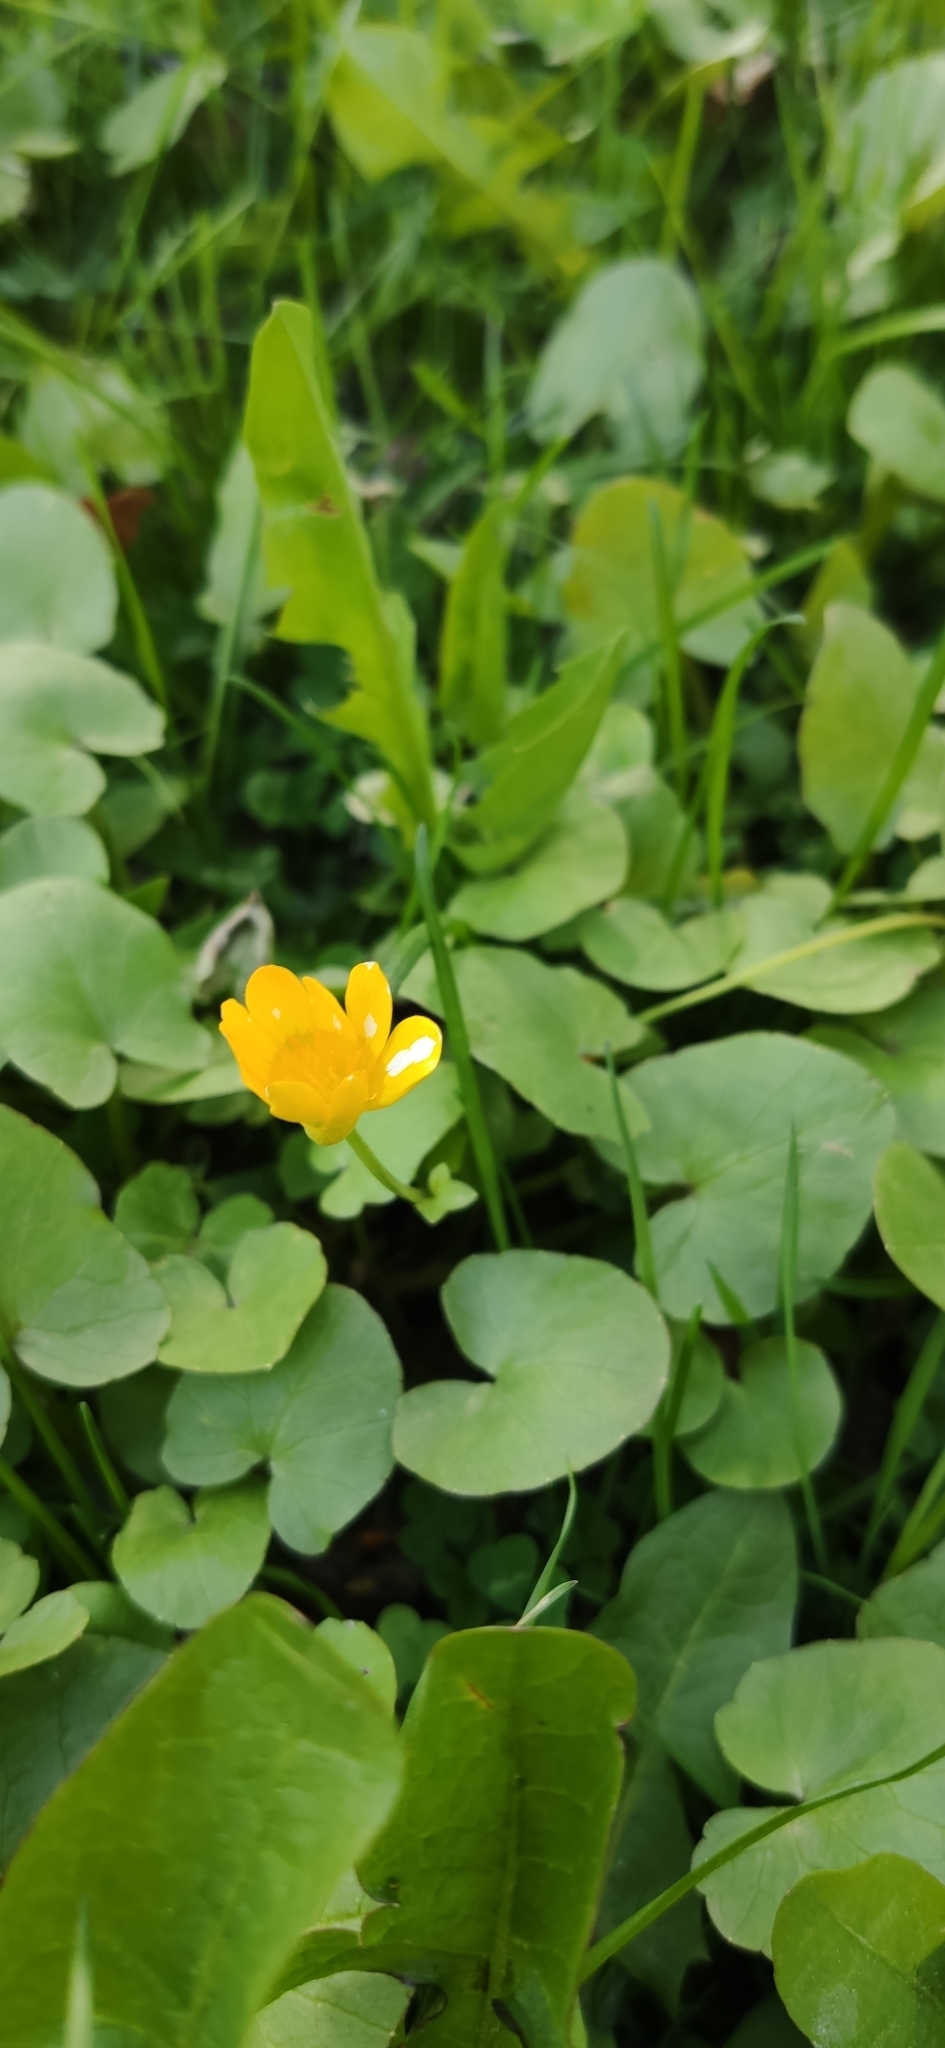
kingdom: Plantae
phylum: Tracheophyta
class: Magnoliopsida
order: Ranunculales
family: Ranunculaceae
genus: Ficaria
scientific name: Ficaria verna
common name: Lesser celandine
